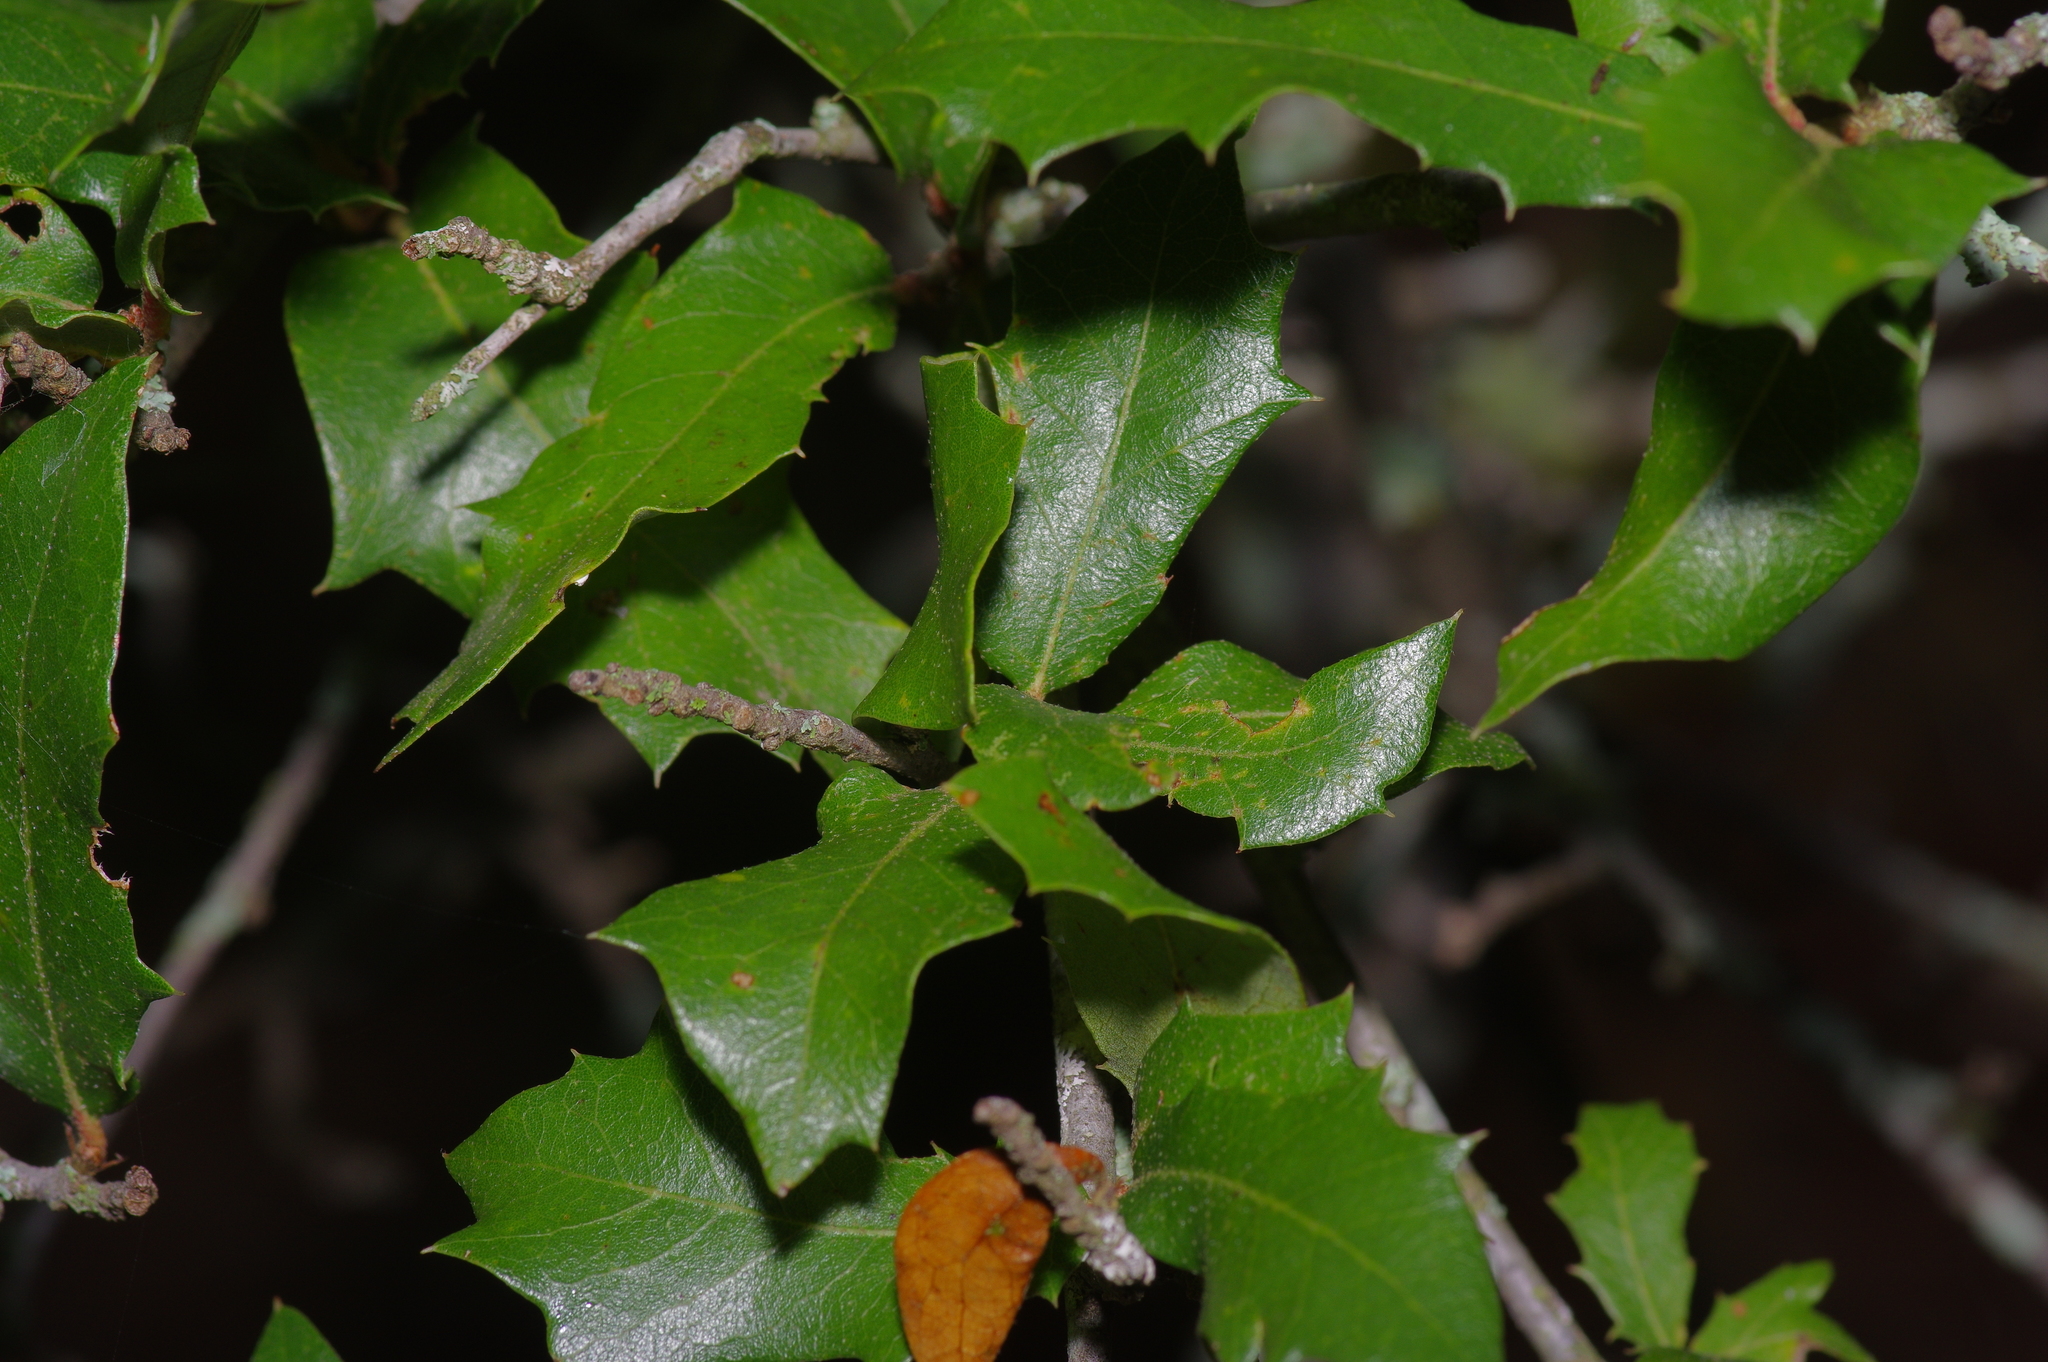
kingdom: Plantae
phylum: Tracheophyta
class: Magnoliopsida
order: Fagales
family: Fagaceae
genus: Quercus
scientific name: Quercus fusiformis
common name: Texas live oak
